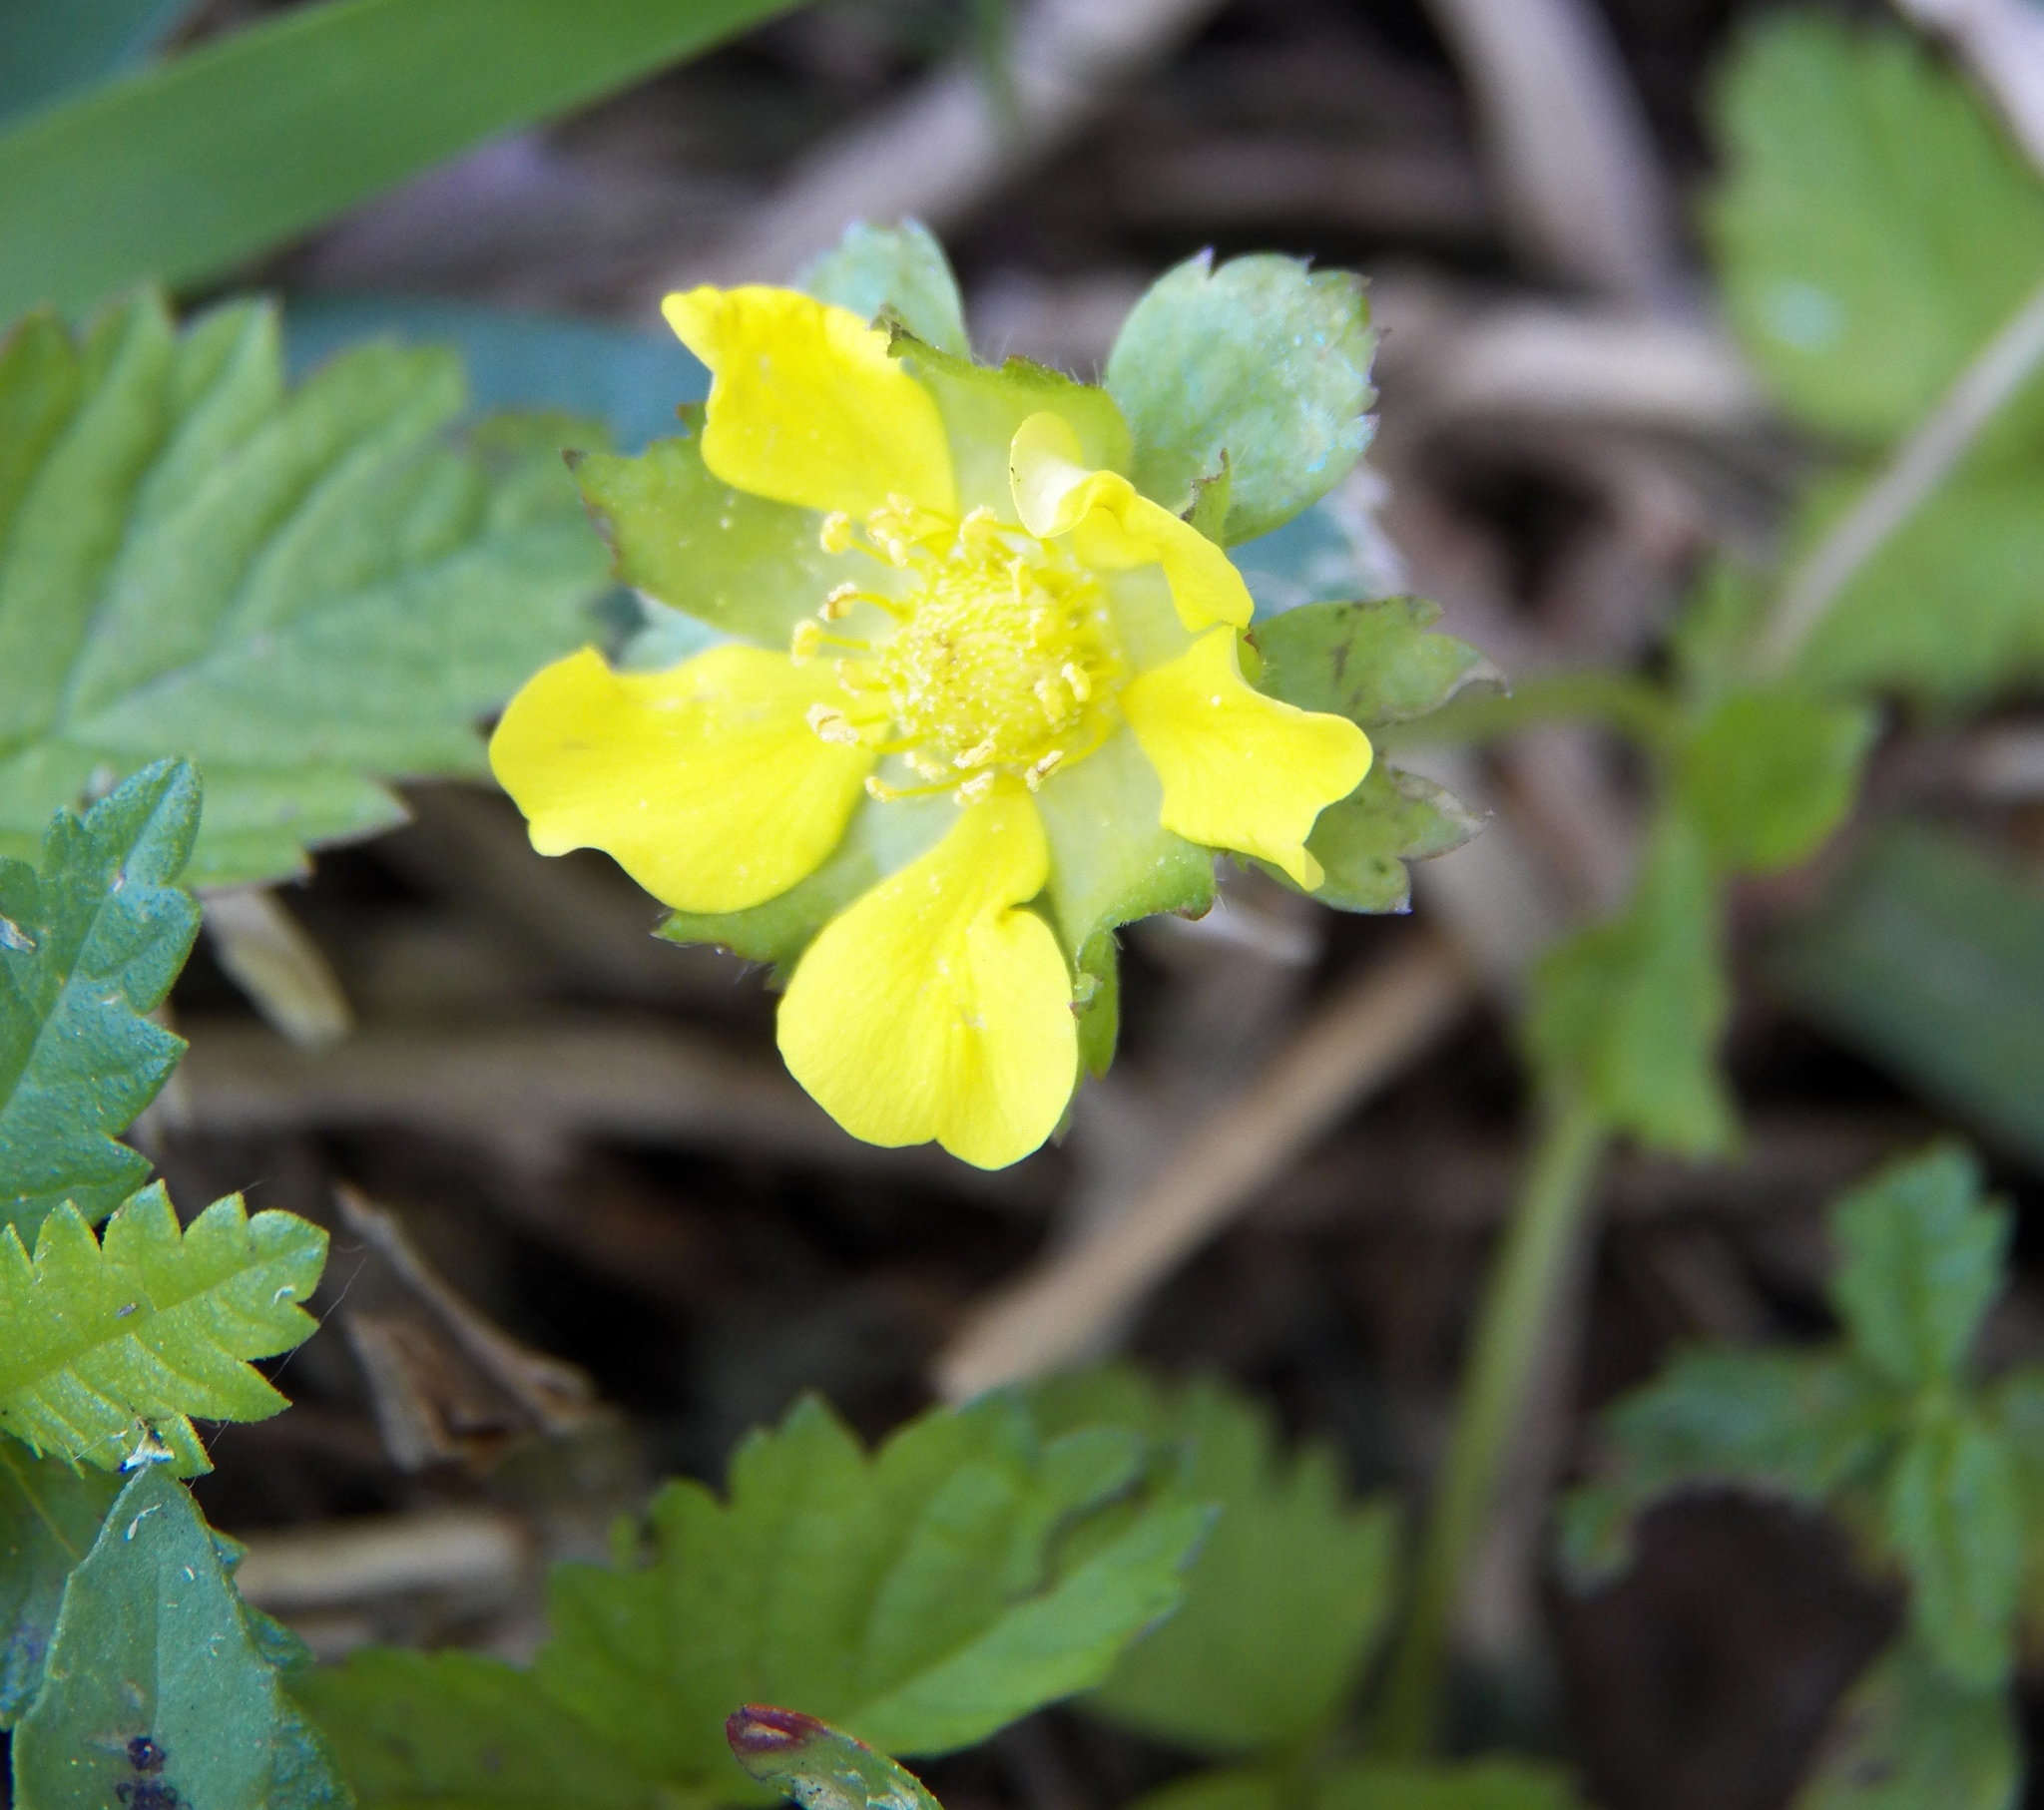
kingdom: Plantae
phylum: Tracheophyta
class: Magnoliopsida
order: Rosales
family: Rosaceae
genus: Potentilla
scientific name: Potentilla indica
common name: Yellow-flowered strawberry
